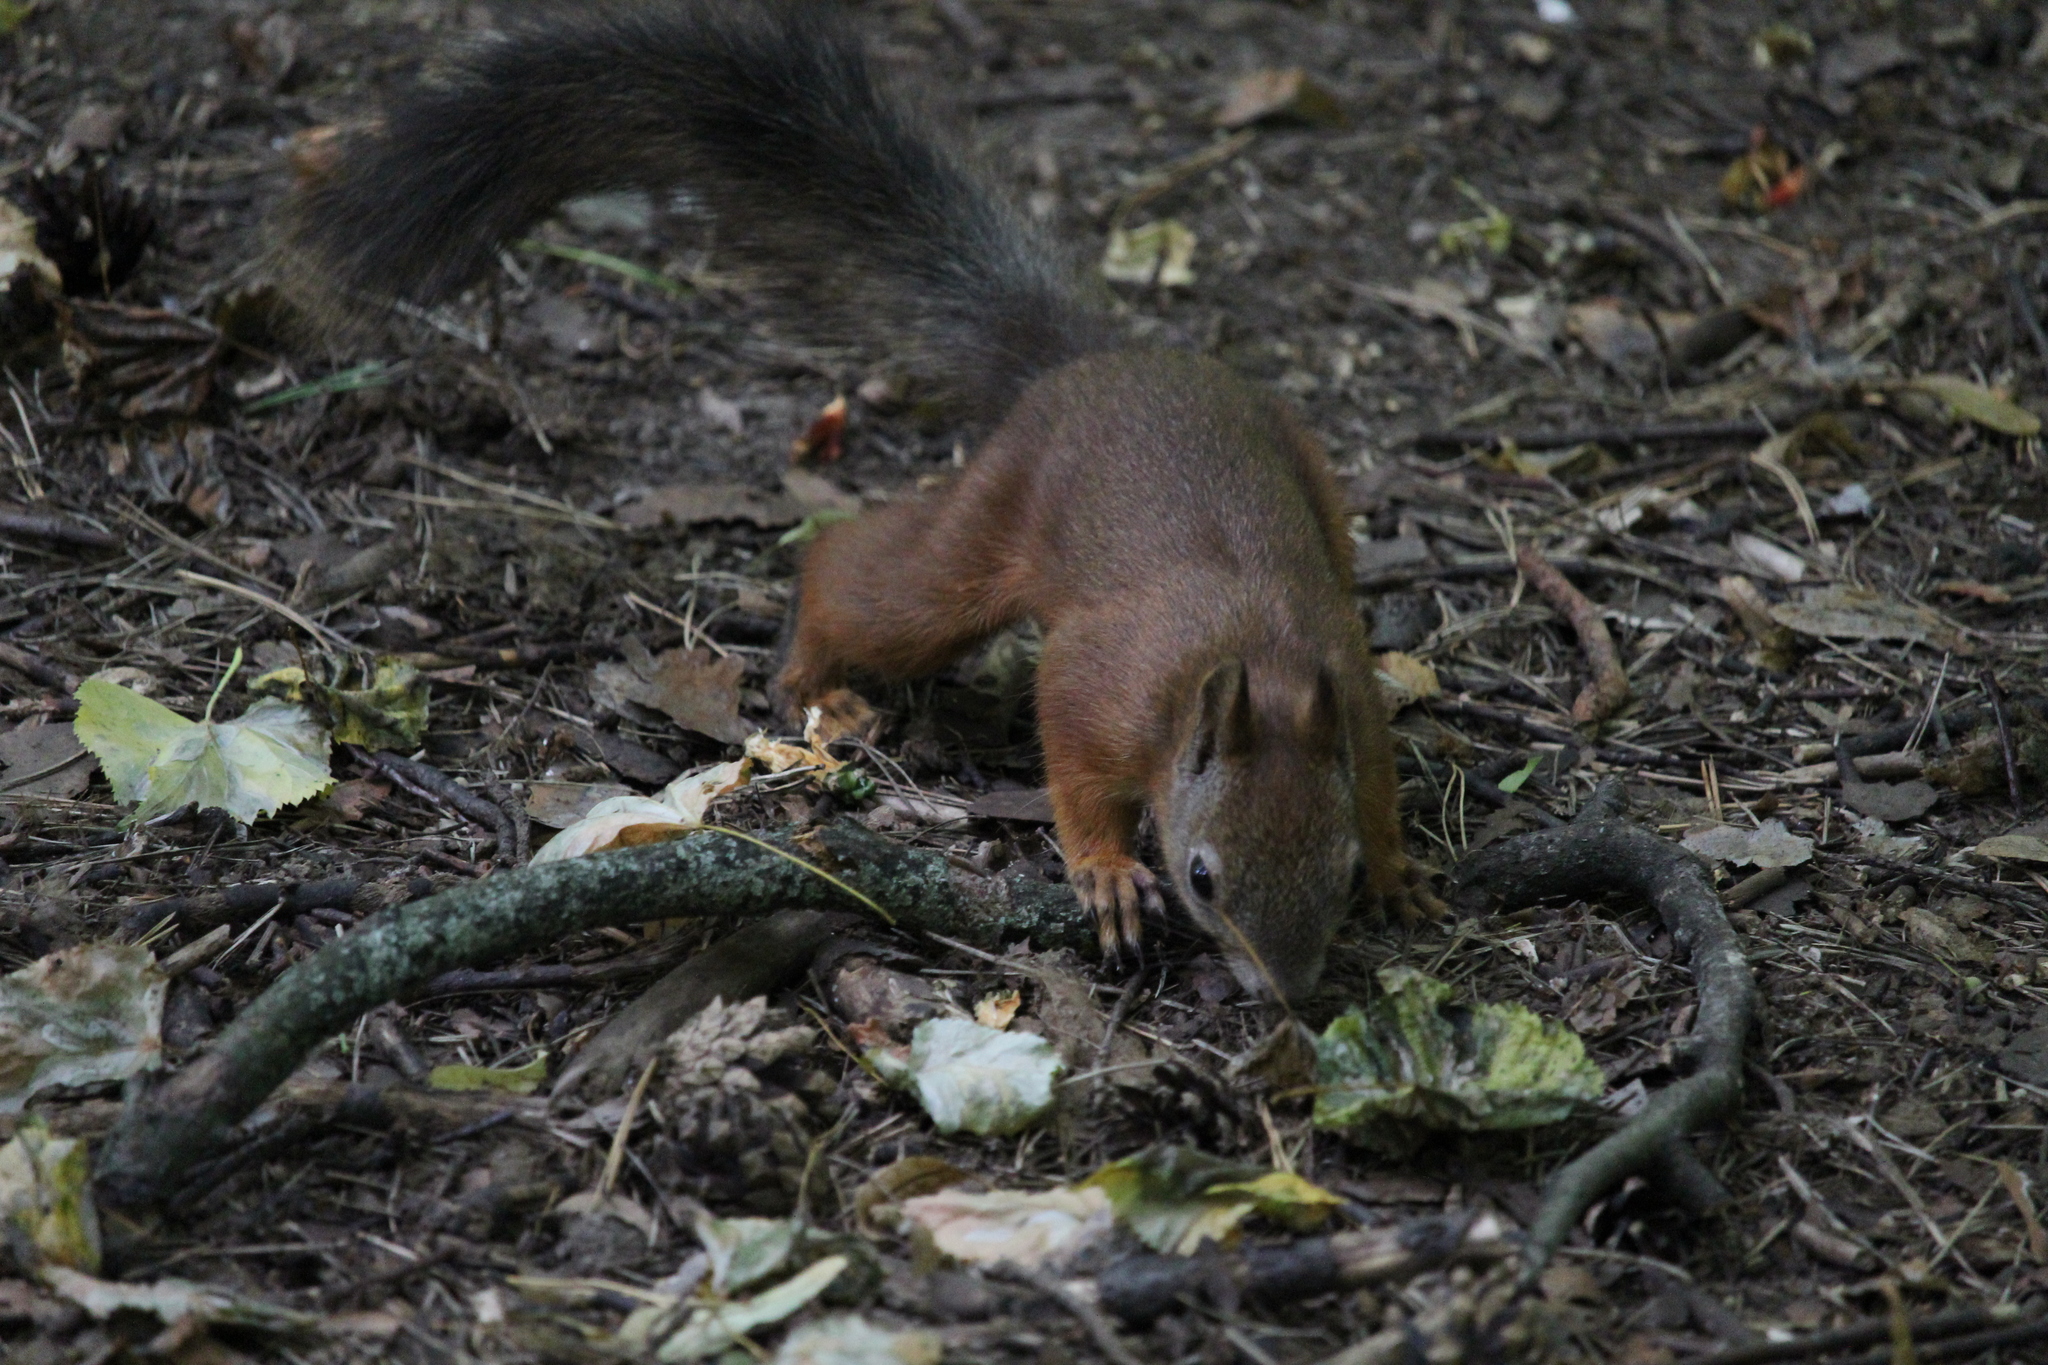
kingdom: Animalia
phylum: Chordata
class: Mammalia
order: Rodentia
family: Sciuridae
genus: Sciurus
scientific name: Sciurus vulgaris
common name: Eurasian red squirrel
